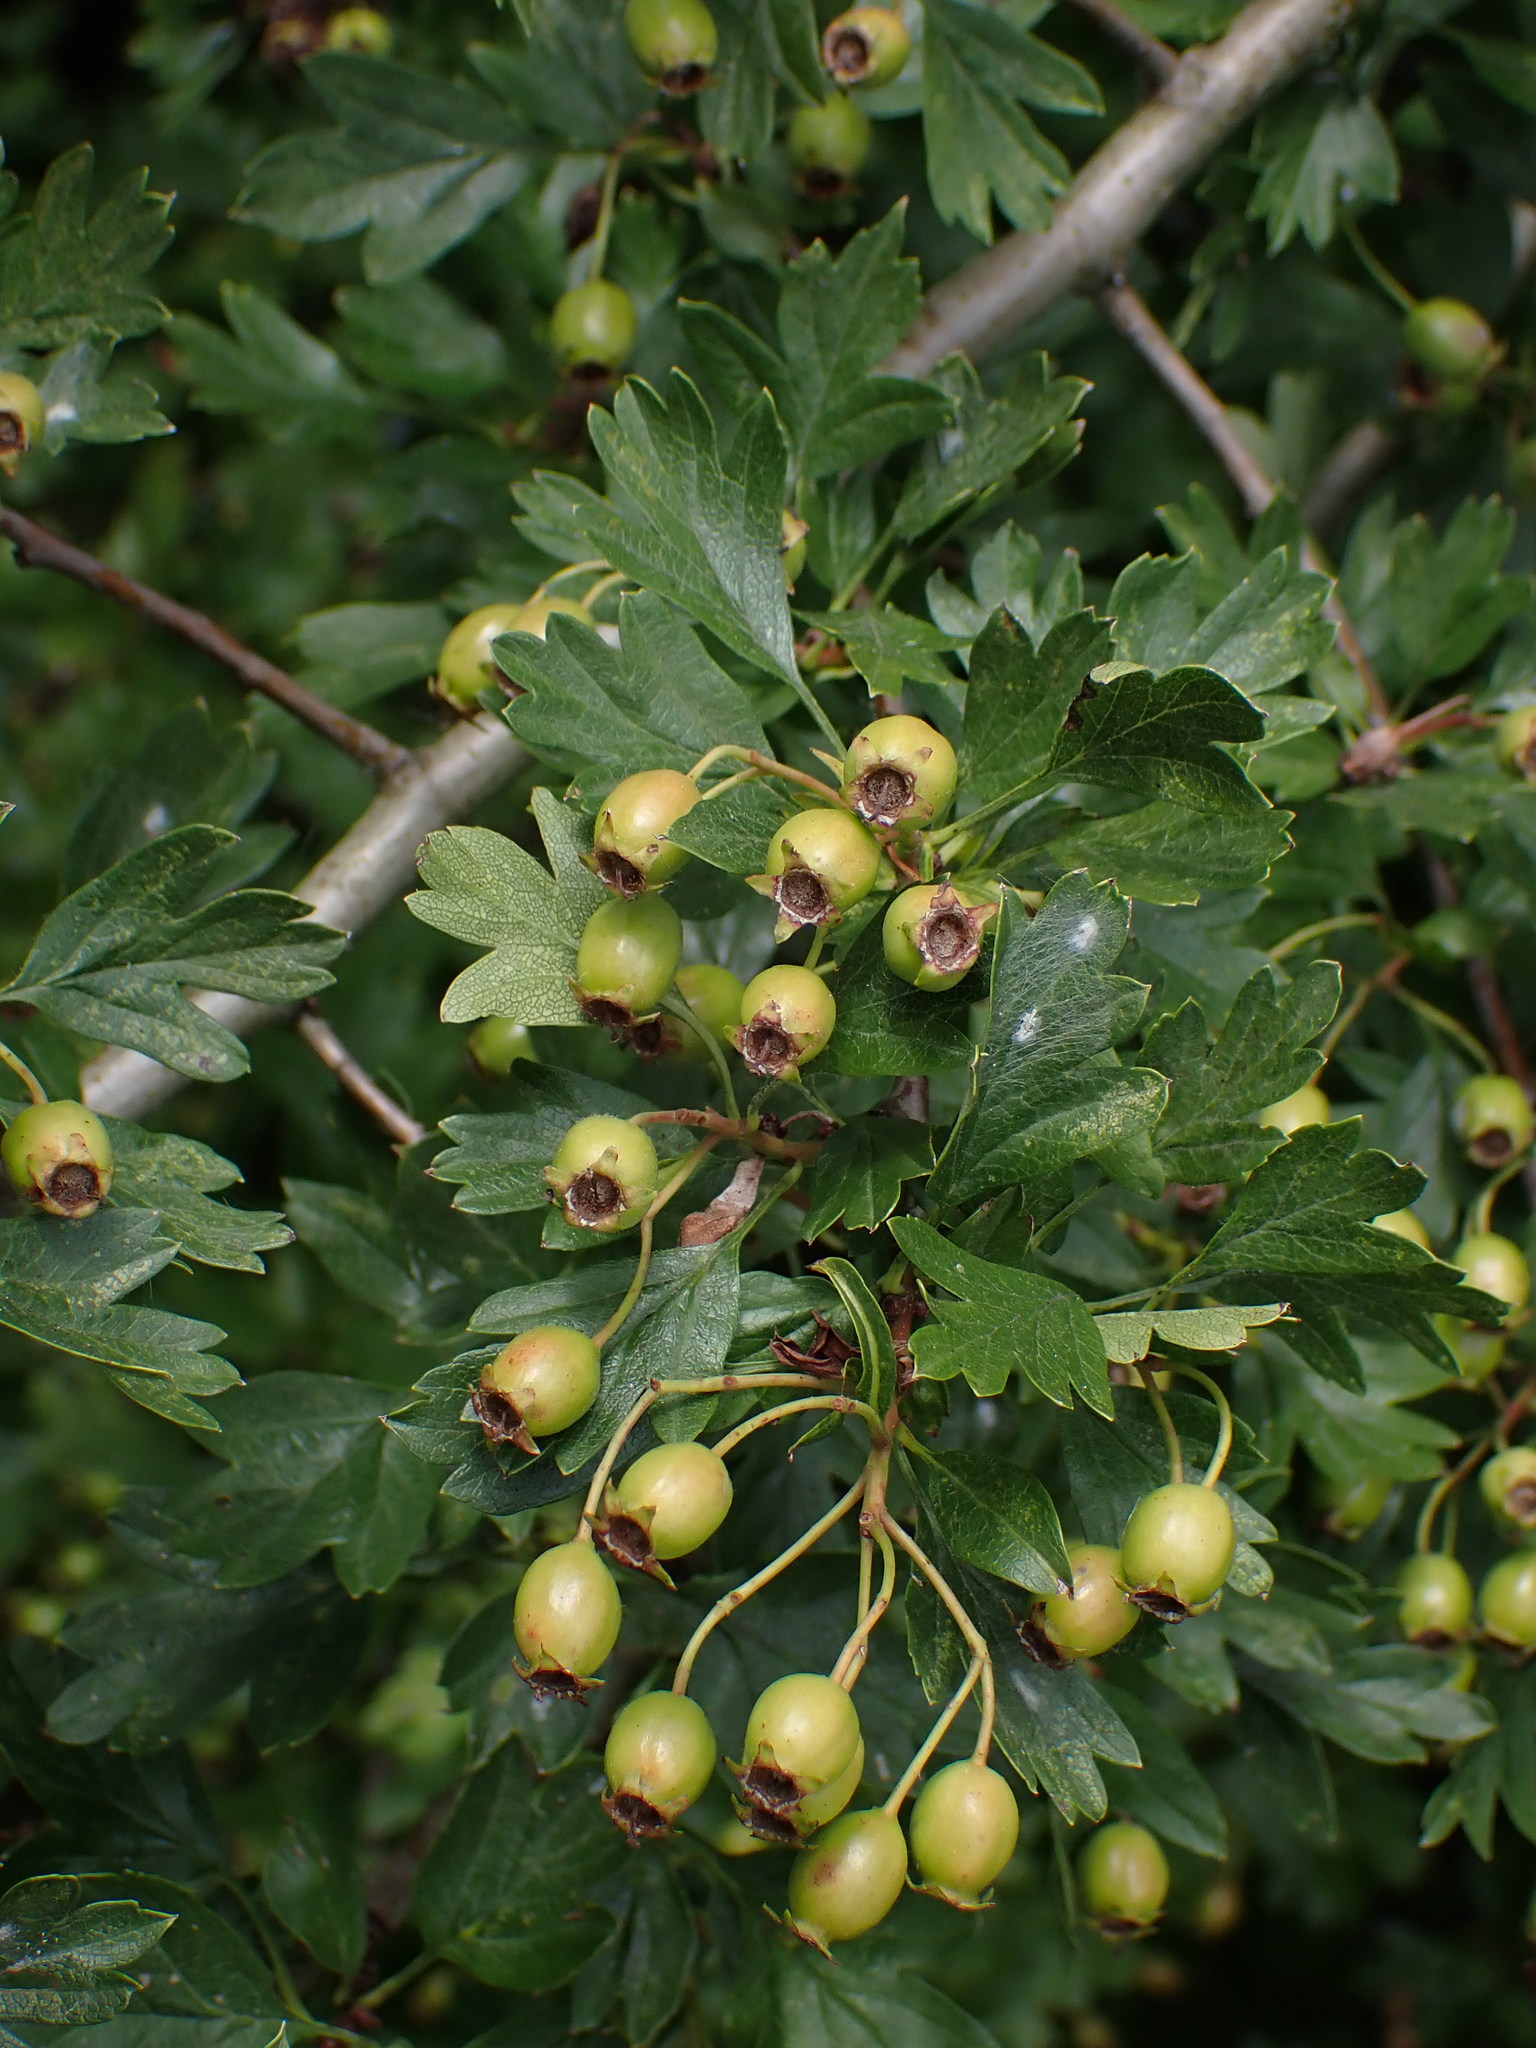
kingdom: Plantae
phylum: Tracheophyta
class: Magnoliopsida
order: Rosales
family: Rosaceae
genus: Crataegus
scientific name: Crataegus monogyna
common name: Hawthorn
